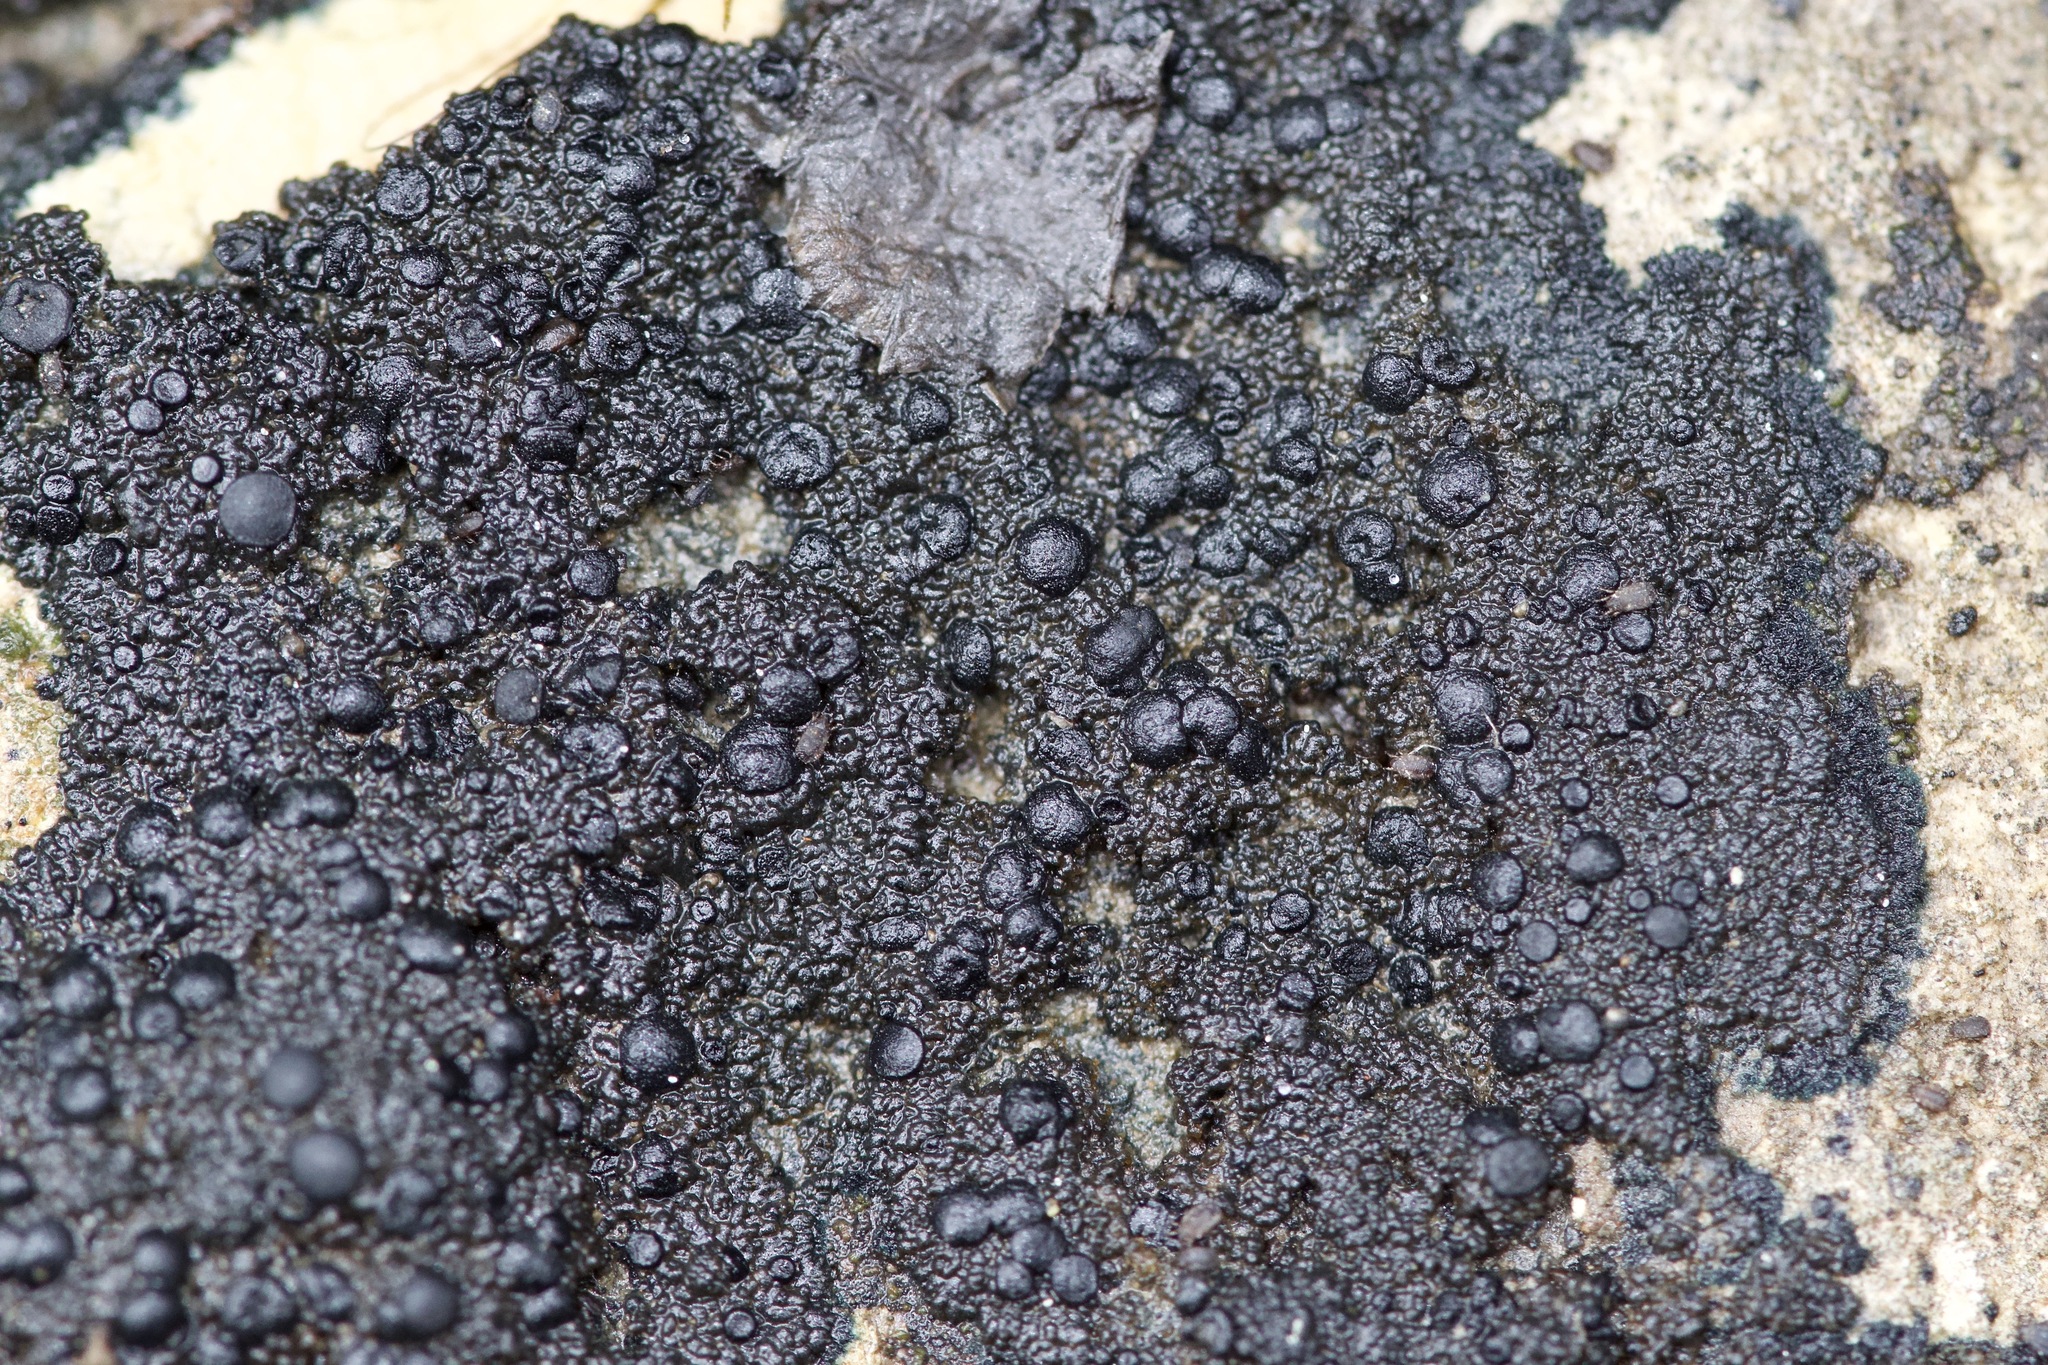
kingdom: Fungi
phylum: Ascomycota
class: Lecanoromycetes
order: Peltigerales
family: Placynthiaceae
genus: Placynthium
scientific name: Placynthium nigrum
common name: Blackthread lichen
